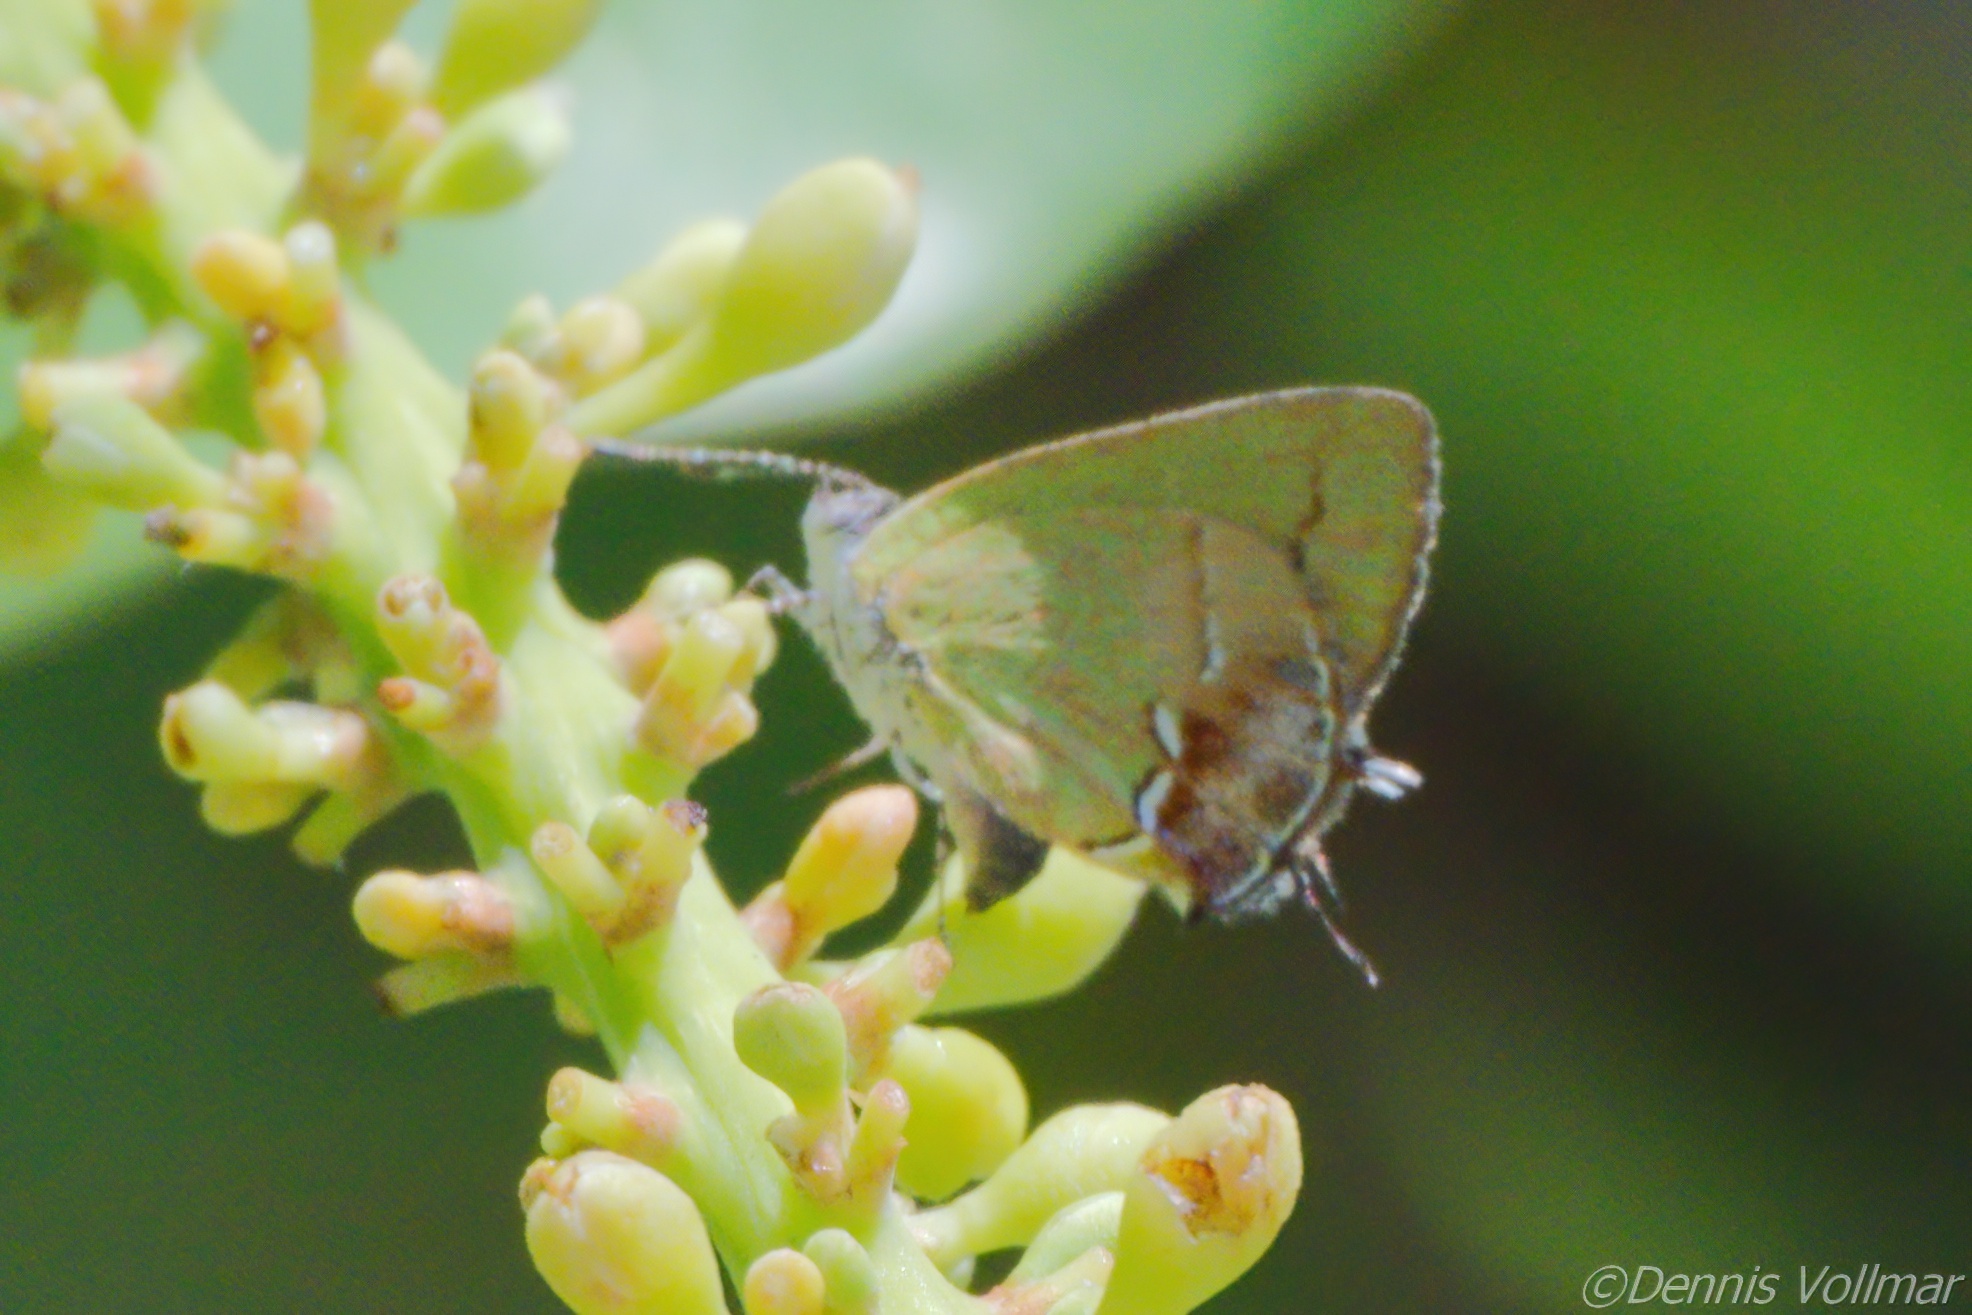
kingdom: Animalia
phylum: Arthropoda
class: Insecta
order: Lepidoptera
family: Lycaenidae
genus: Thecla
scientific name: Thecla maesites
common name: Verde azul hairstreak
